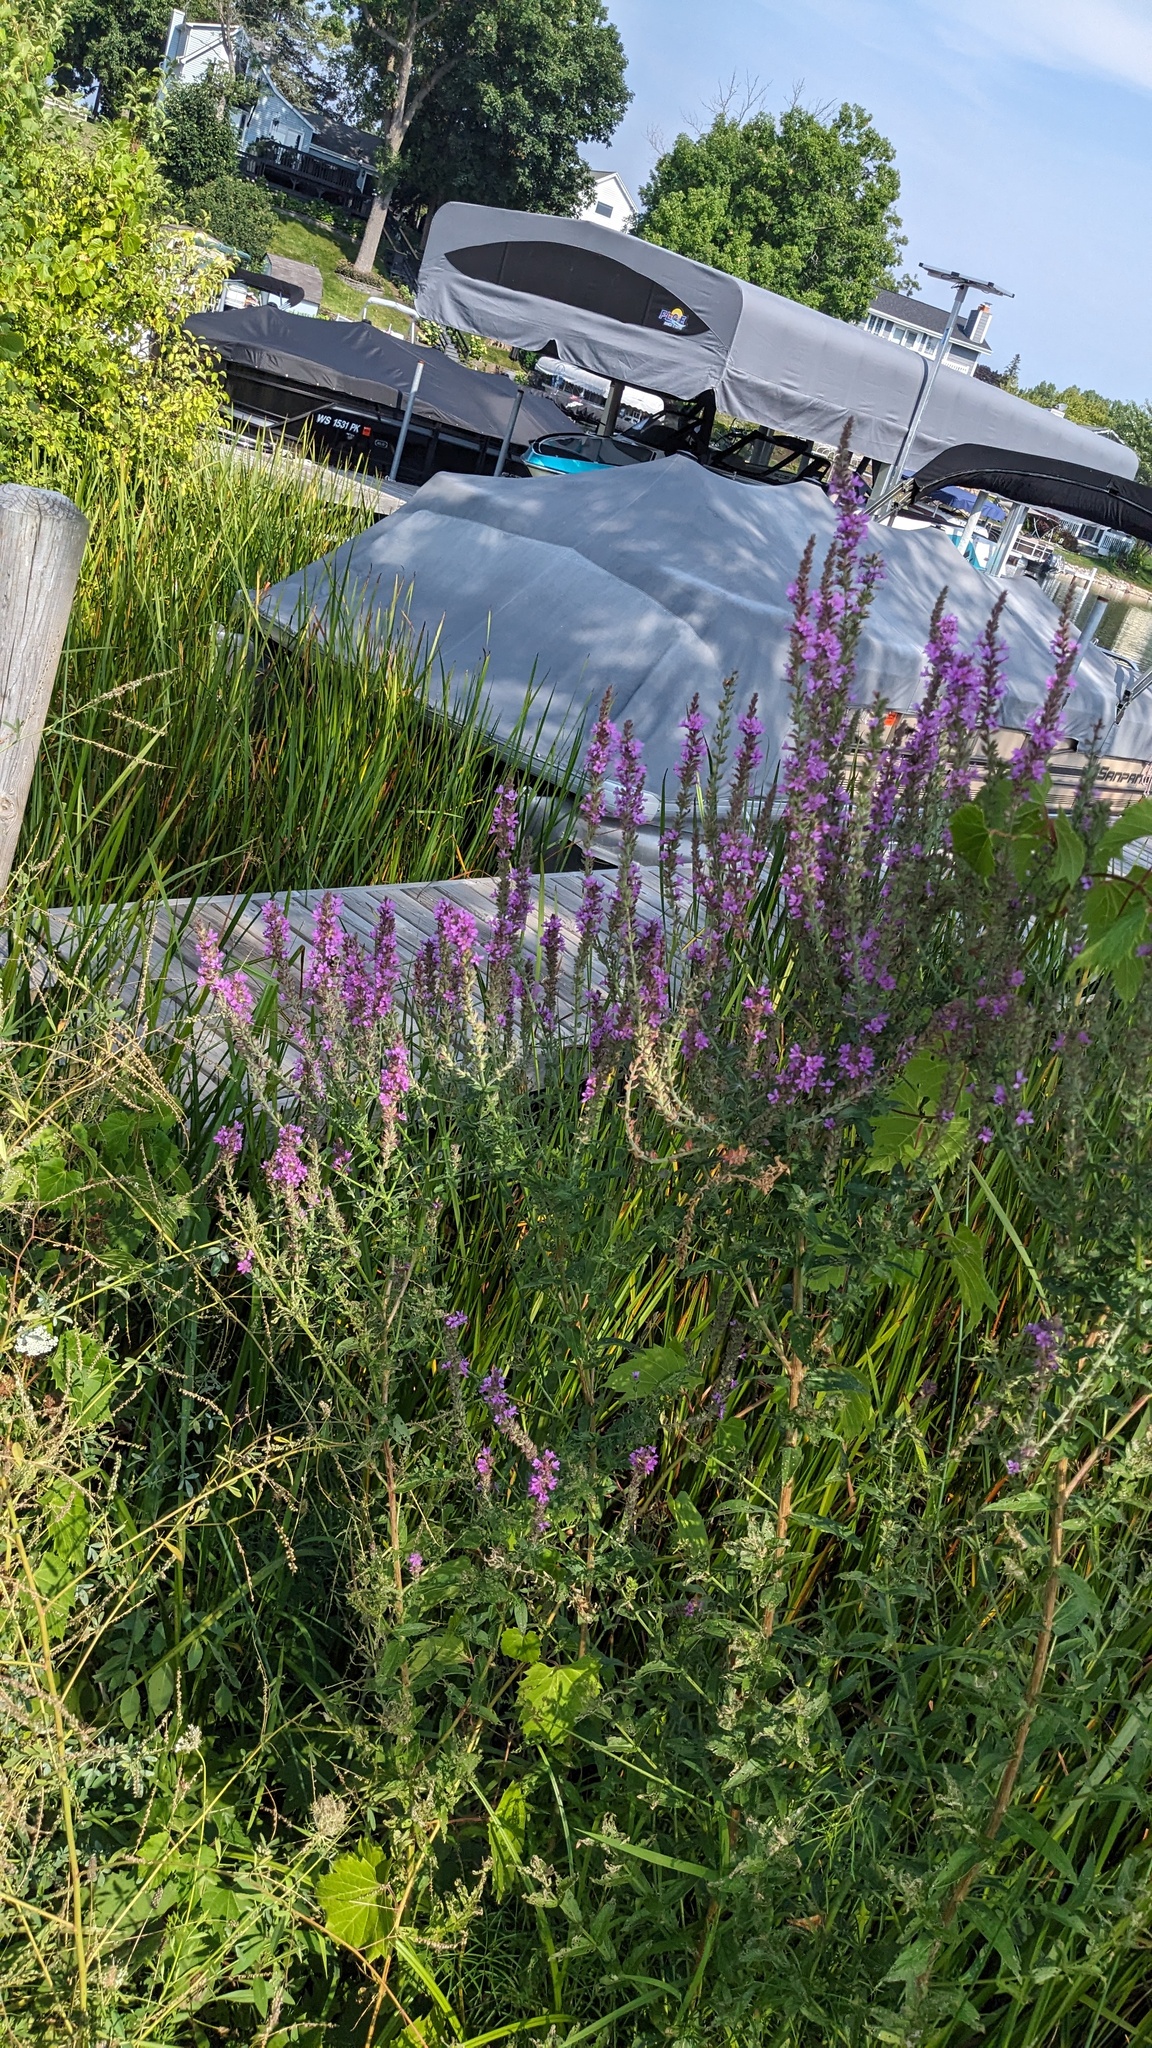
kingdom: Plantae
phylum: Tracheophyta
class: Magnoliopsida
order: Myrtales
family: Lythraceae
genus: Lythrum
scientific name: Lythrum salicaria
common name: Purple loosestrife
